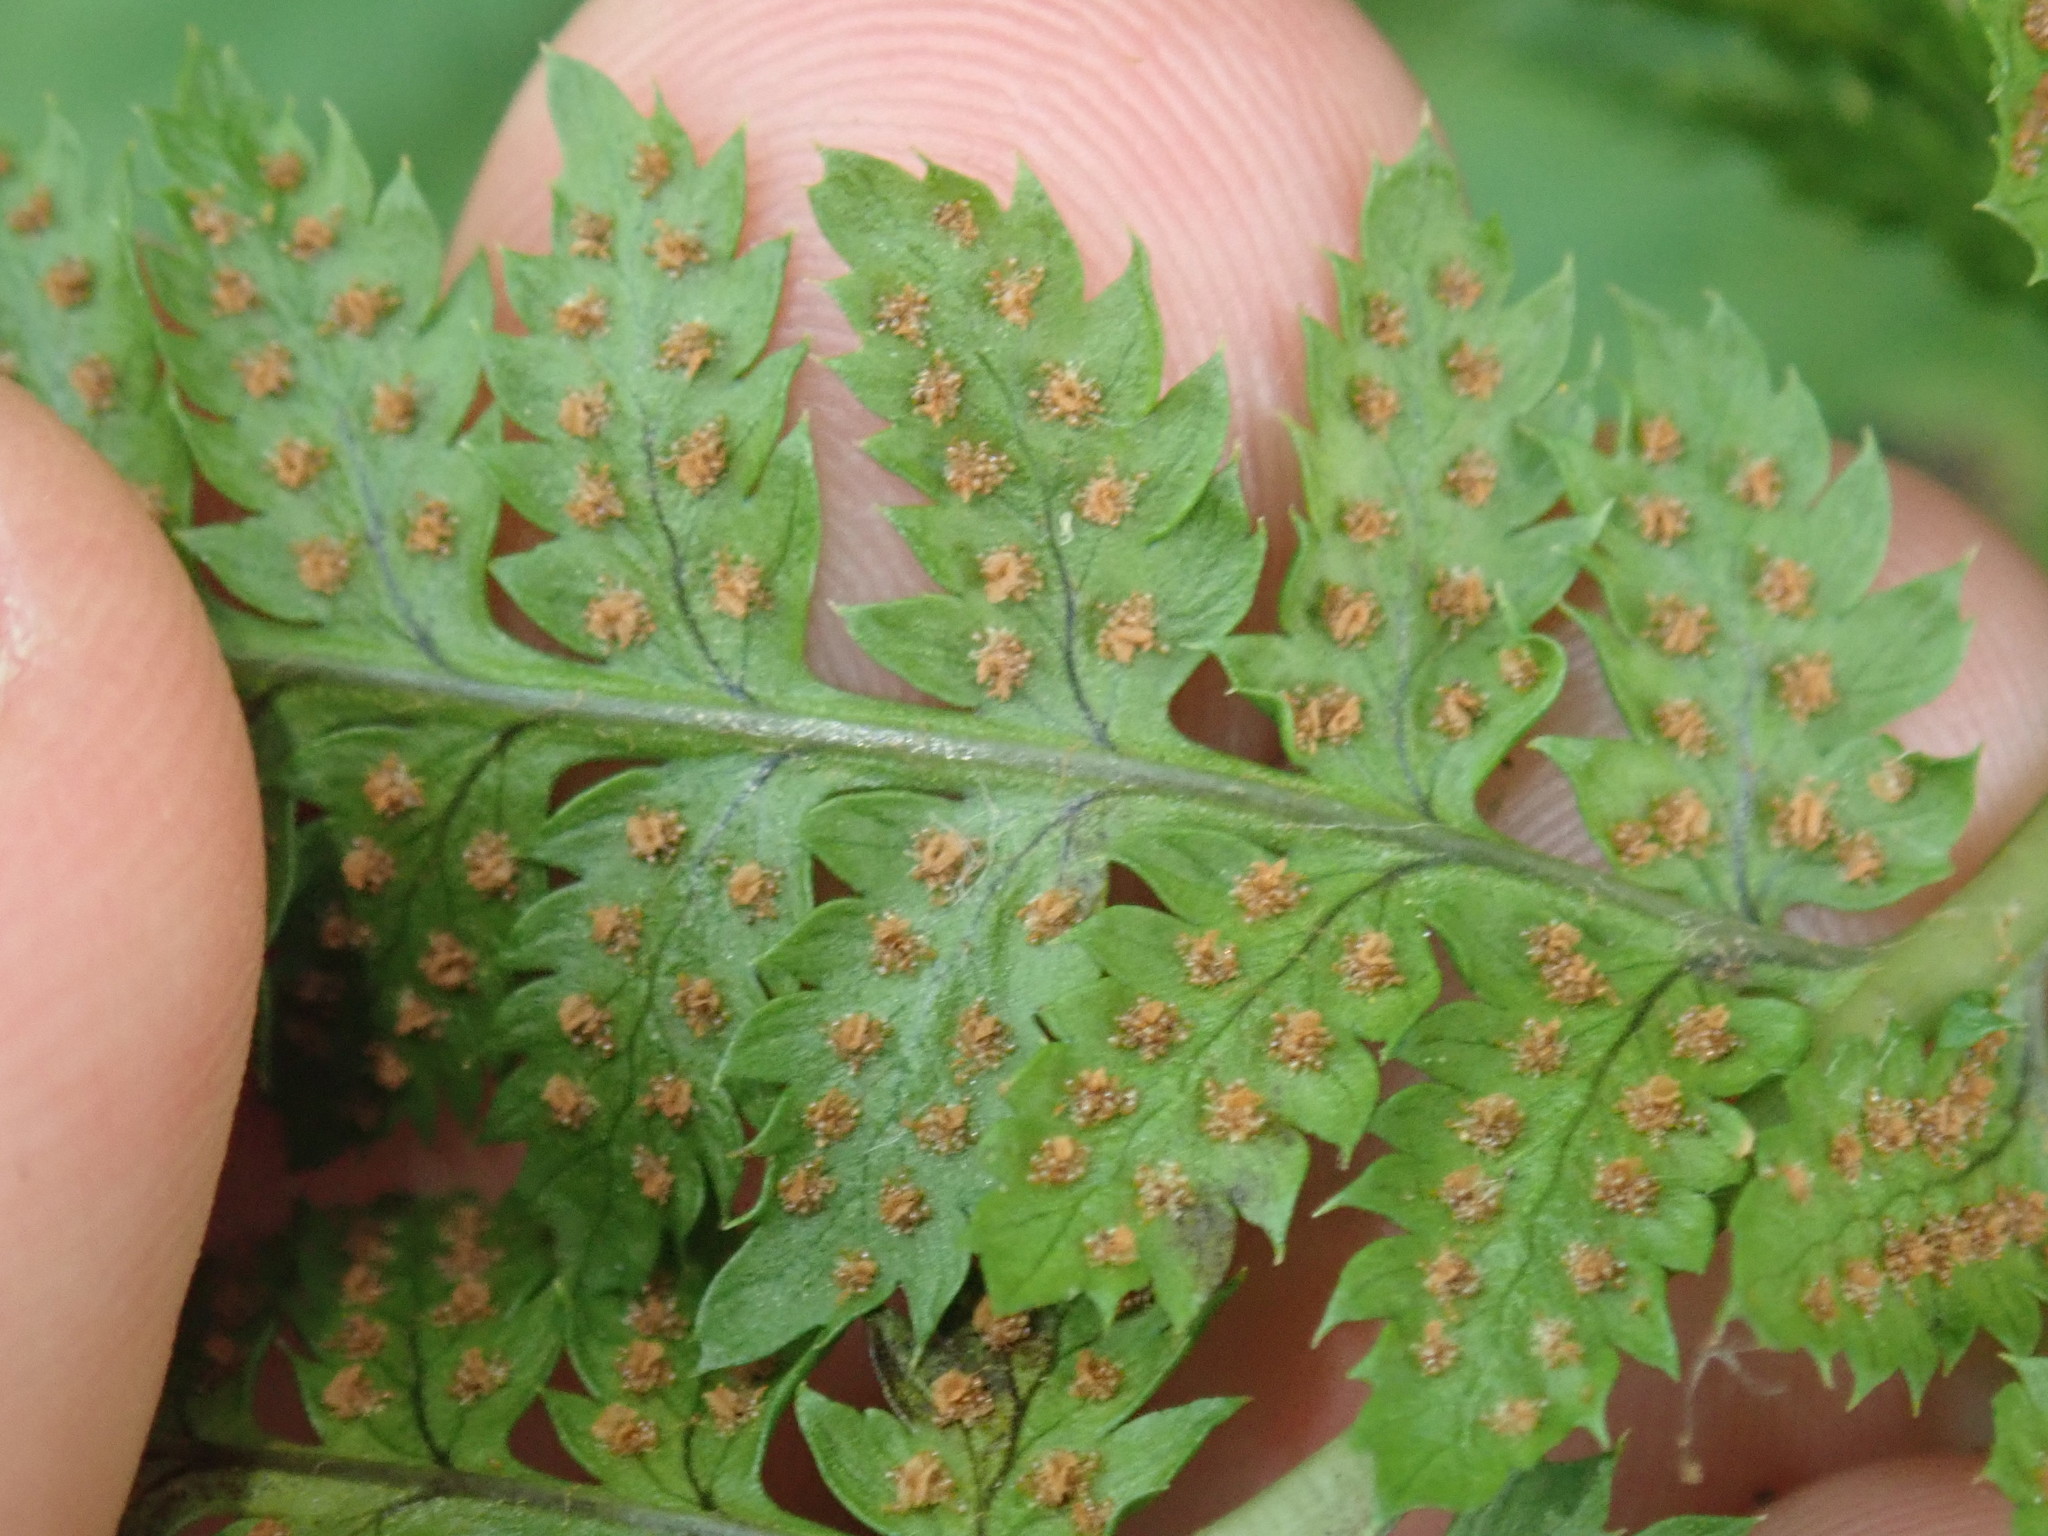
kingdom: Plantae
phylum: Tracheophyta
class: Polypodiopsida
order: Polypodiales
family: Dryopteridaceae
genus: Dryopteris
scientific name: Dryopteris carthusiana
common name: Narrow buckler-fern
